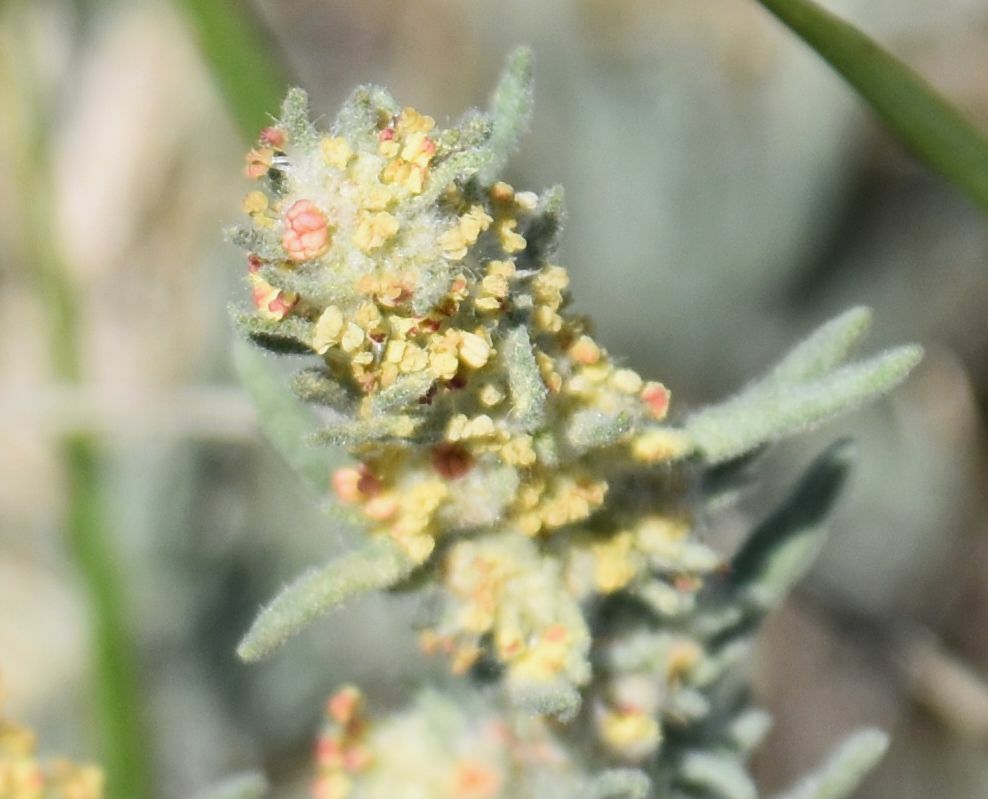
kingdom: Plantae
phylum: Tracheophyta
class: Magnoliopsida
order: Caryophyllales
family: Amaranthaceae
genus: Krascheninnikovia
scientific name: Krascheninnikovia lanata
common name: Winterfat
